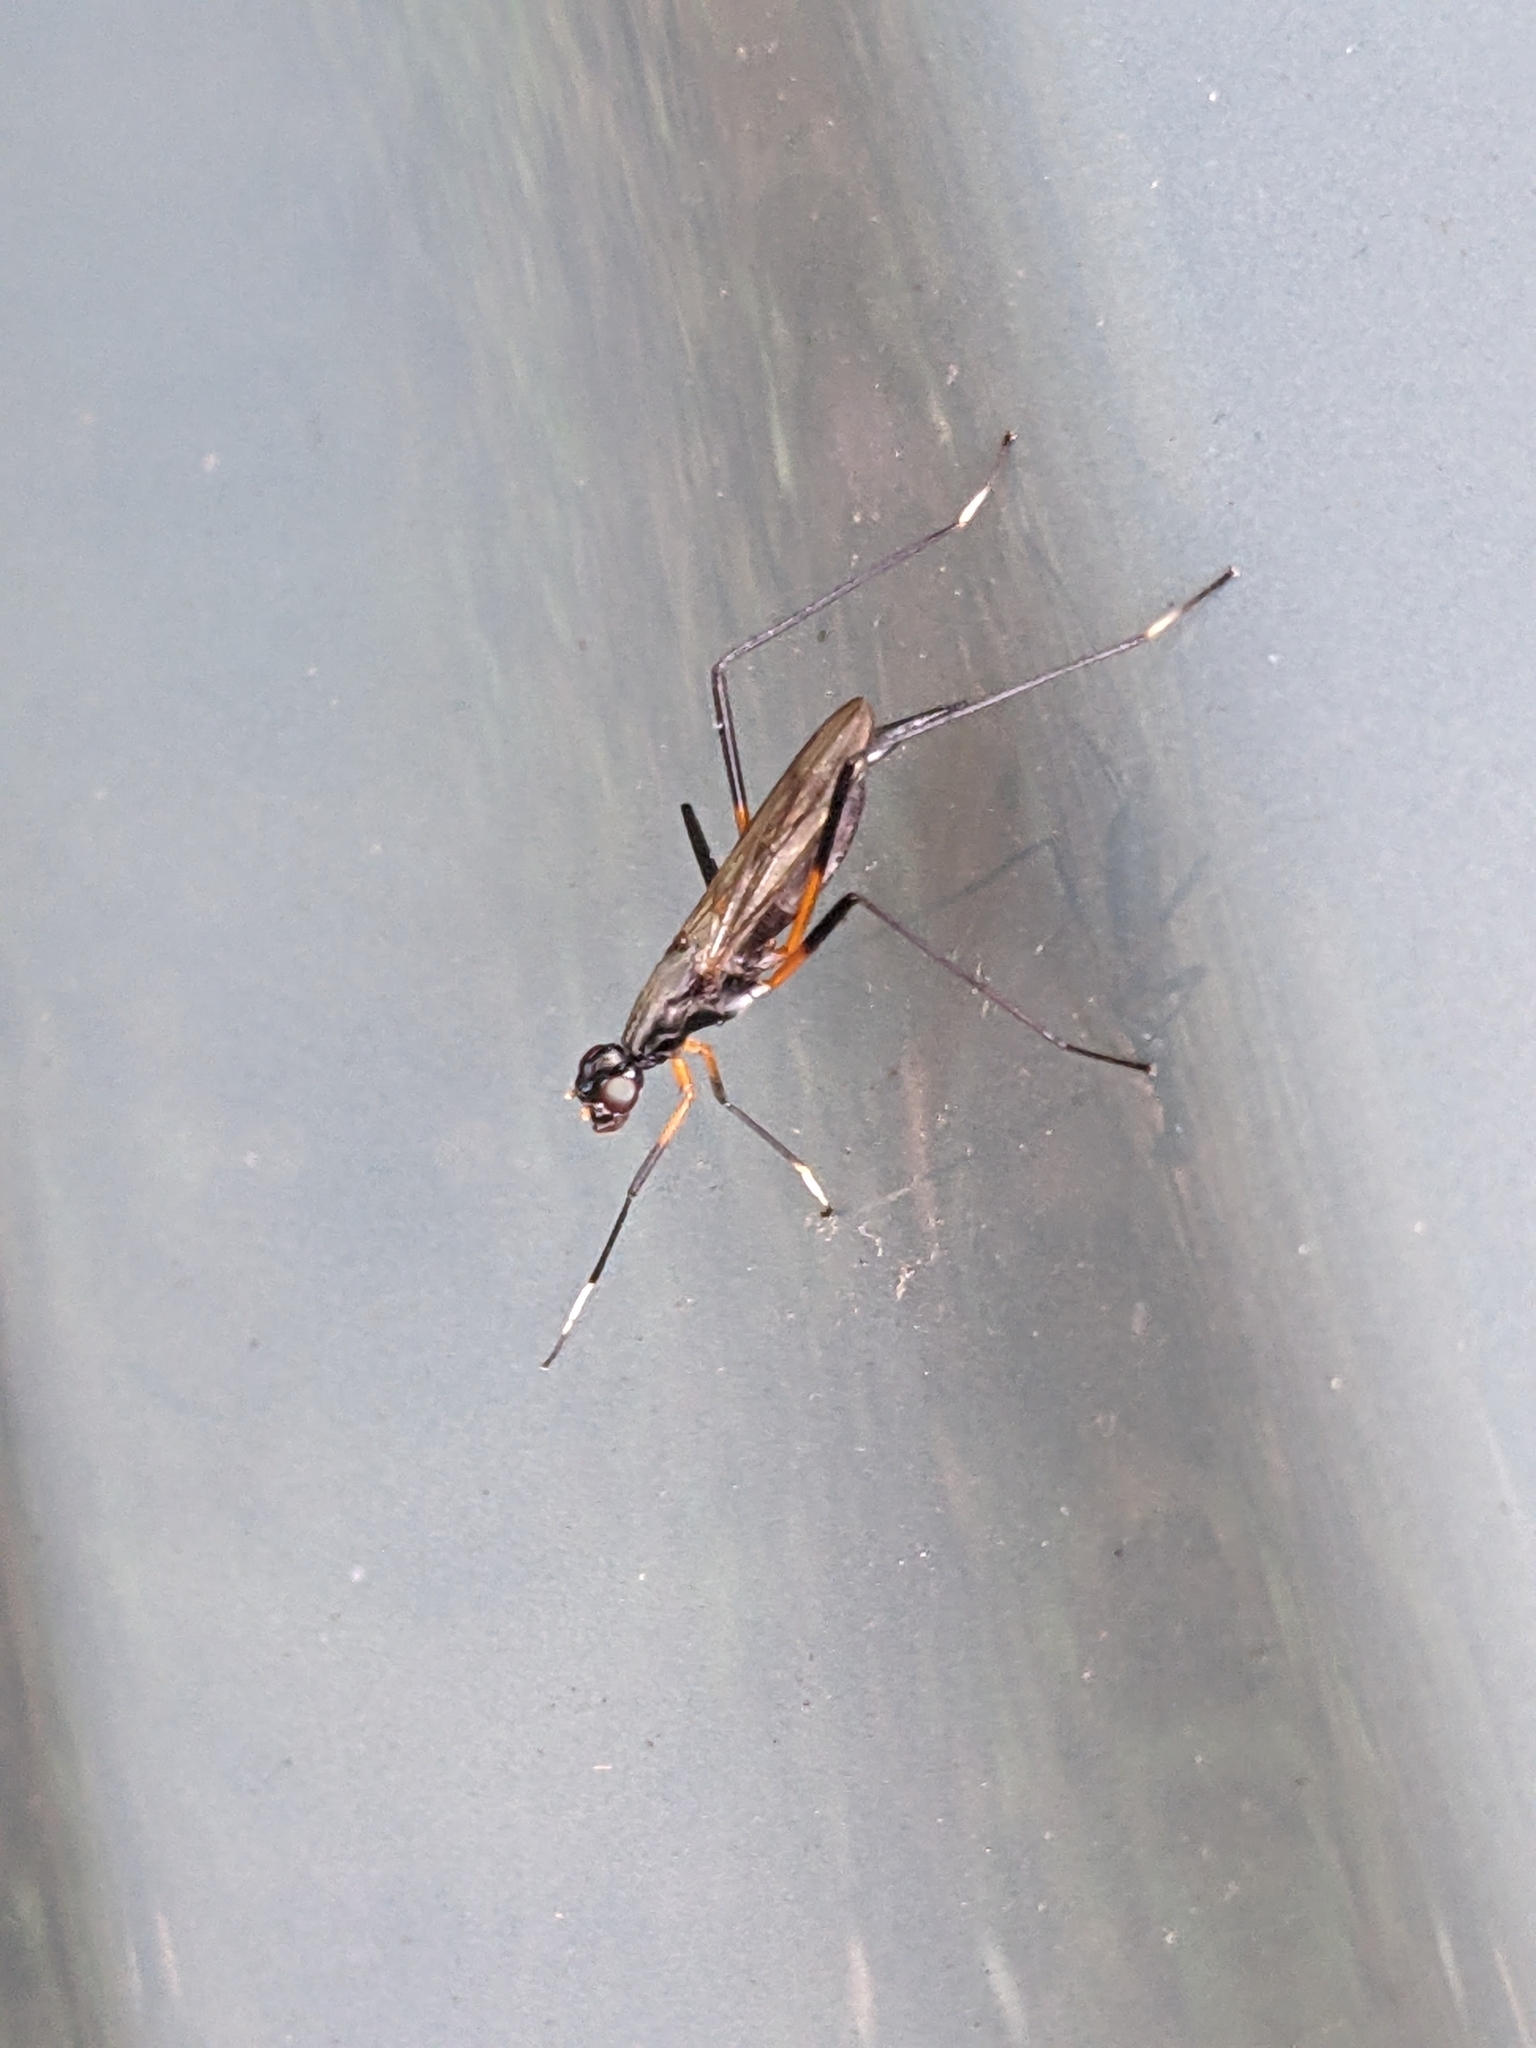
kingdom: Animalia
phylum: Arthropoda
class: Insecta
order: Diptera
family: Micropezidae
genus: Calobatina
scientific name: Calobatina geometra
